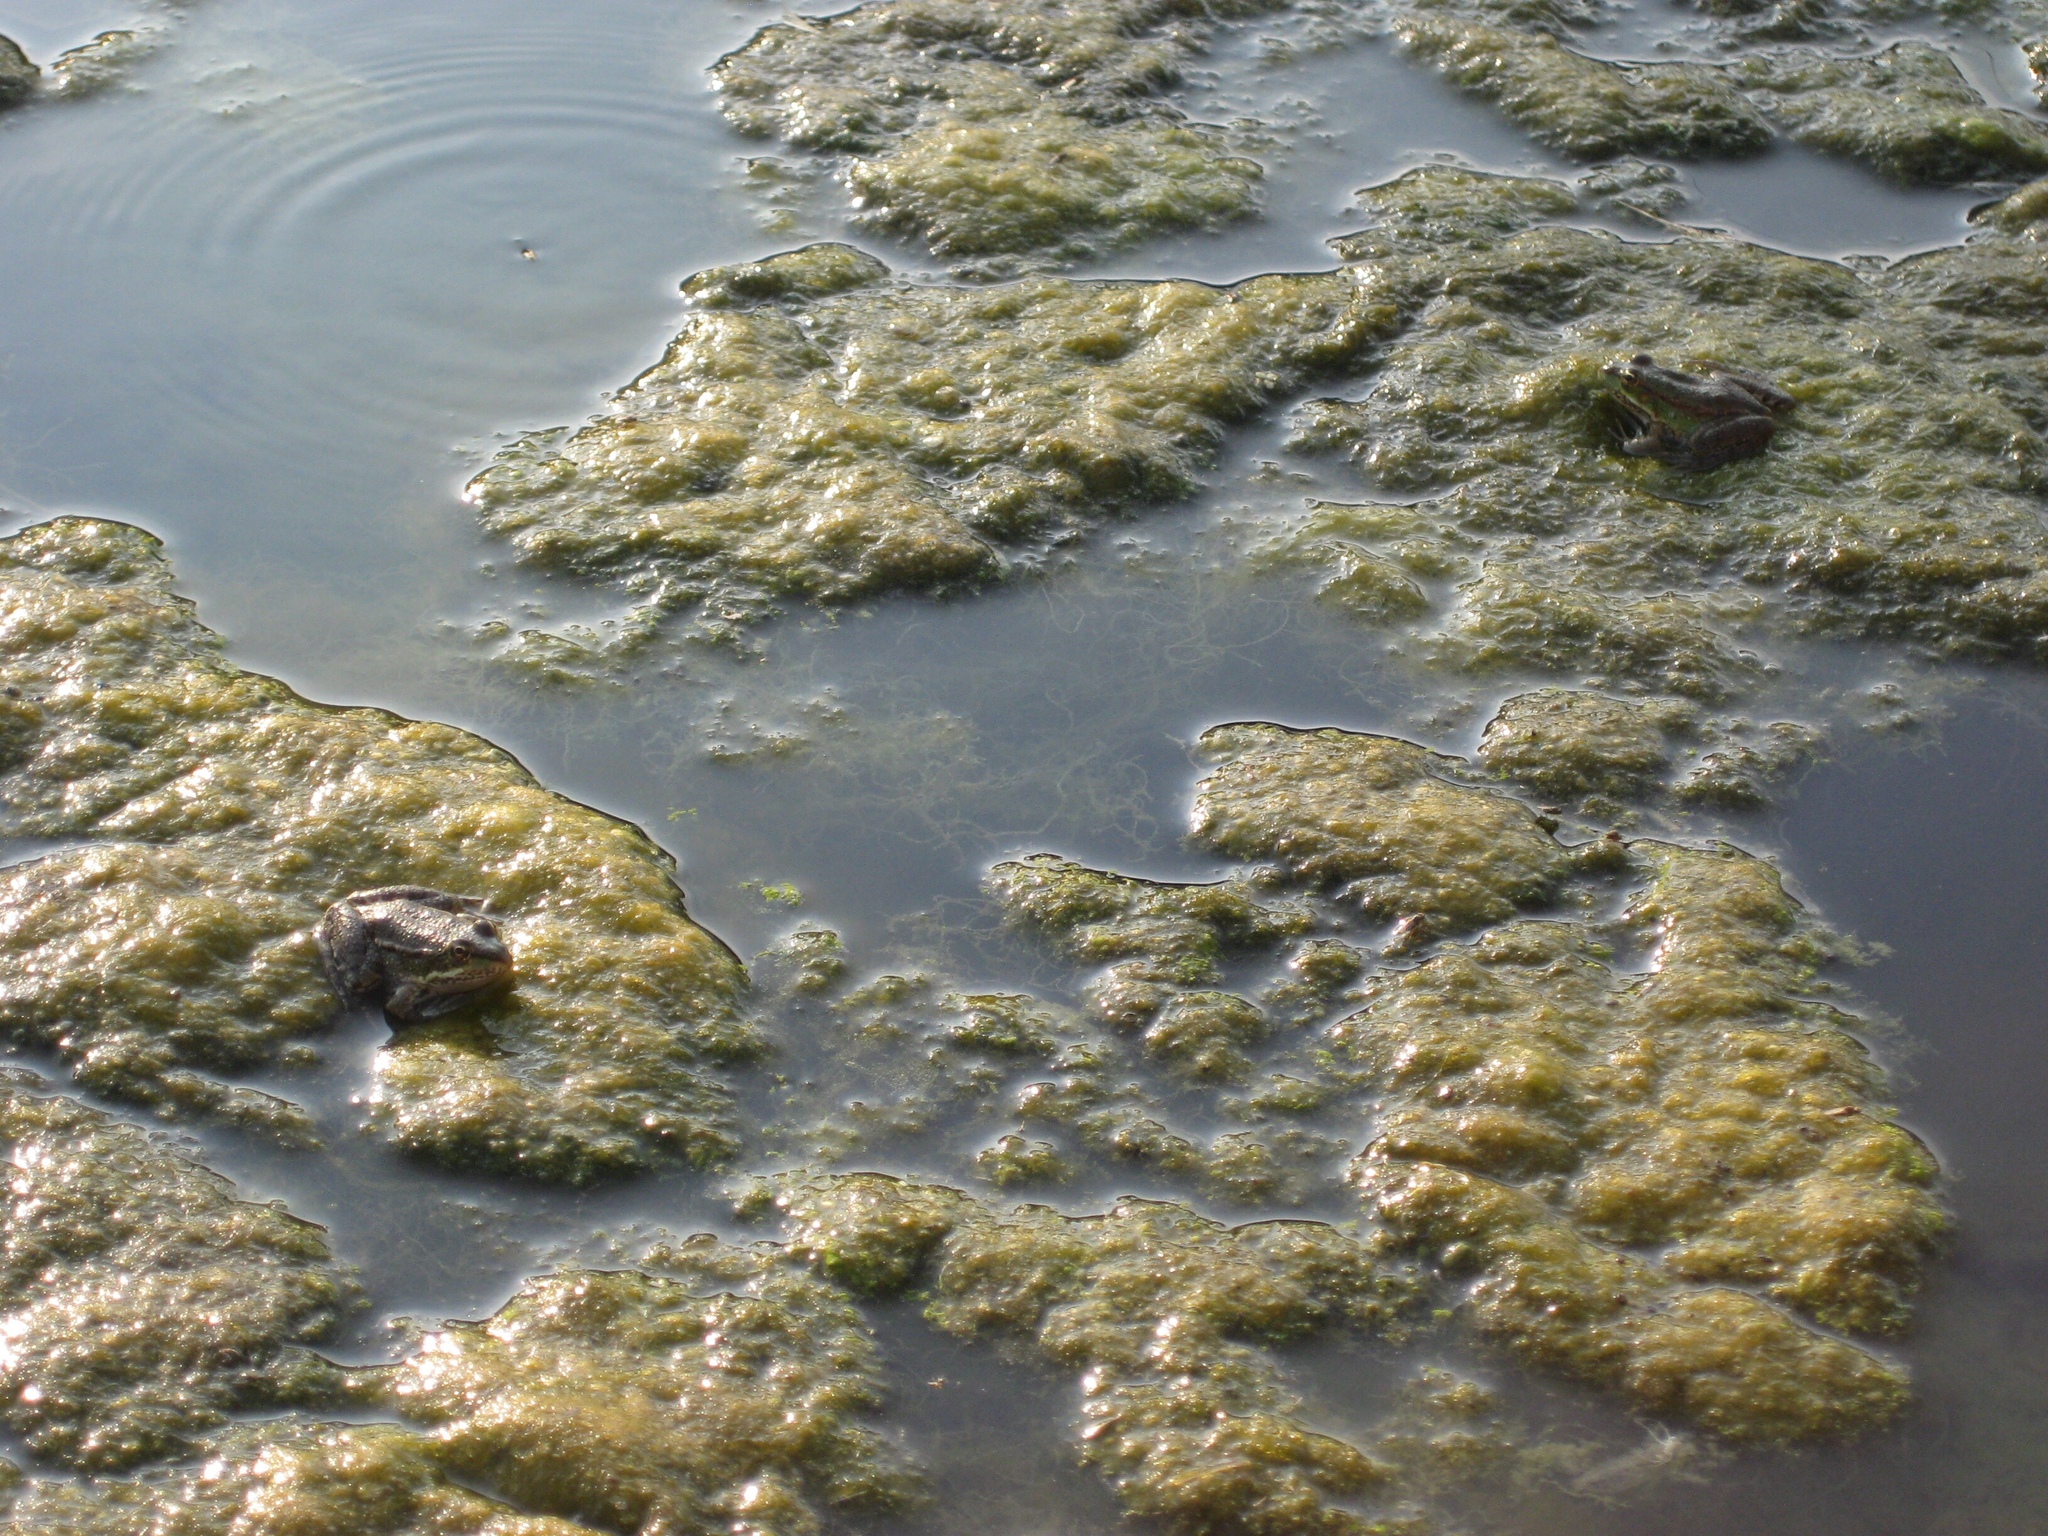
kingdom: Animalia
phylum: Chordata
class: Amphibia
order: Anura
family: Ranidae
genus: Pelophylax
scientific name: Pelophylax ridibundus
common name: Marsh frog
